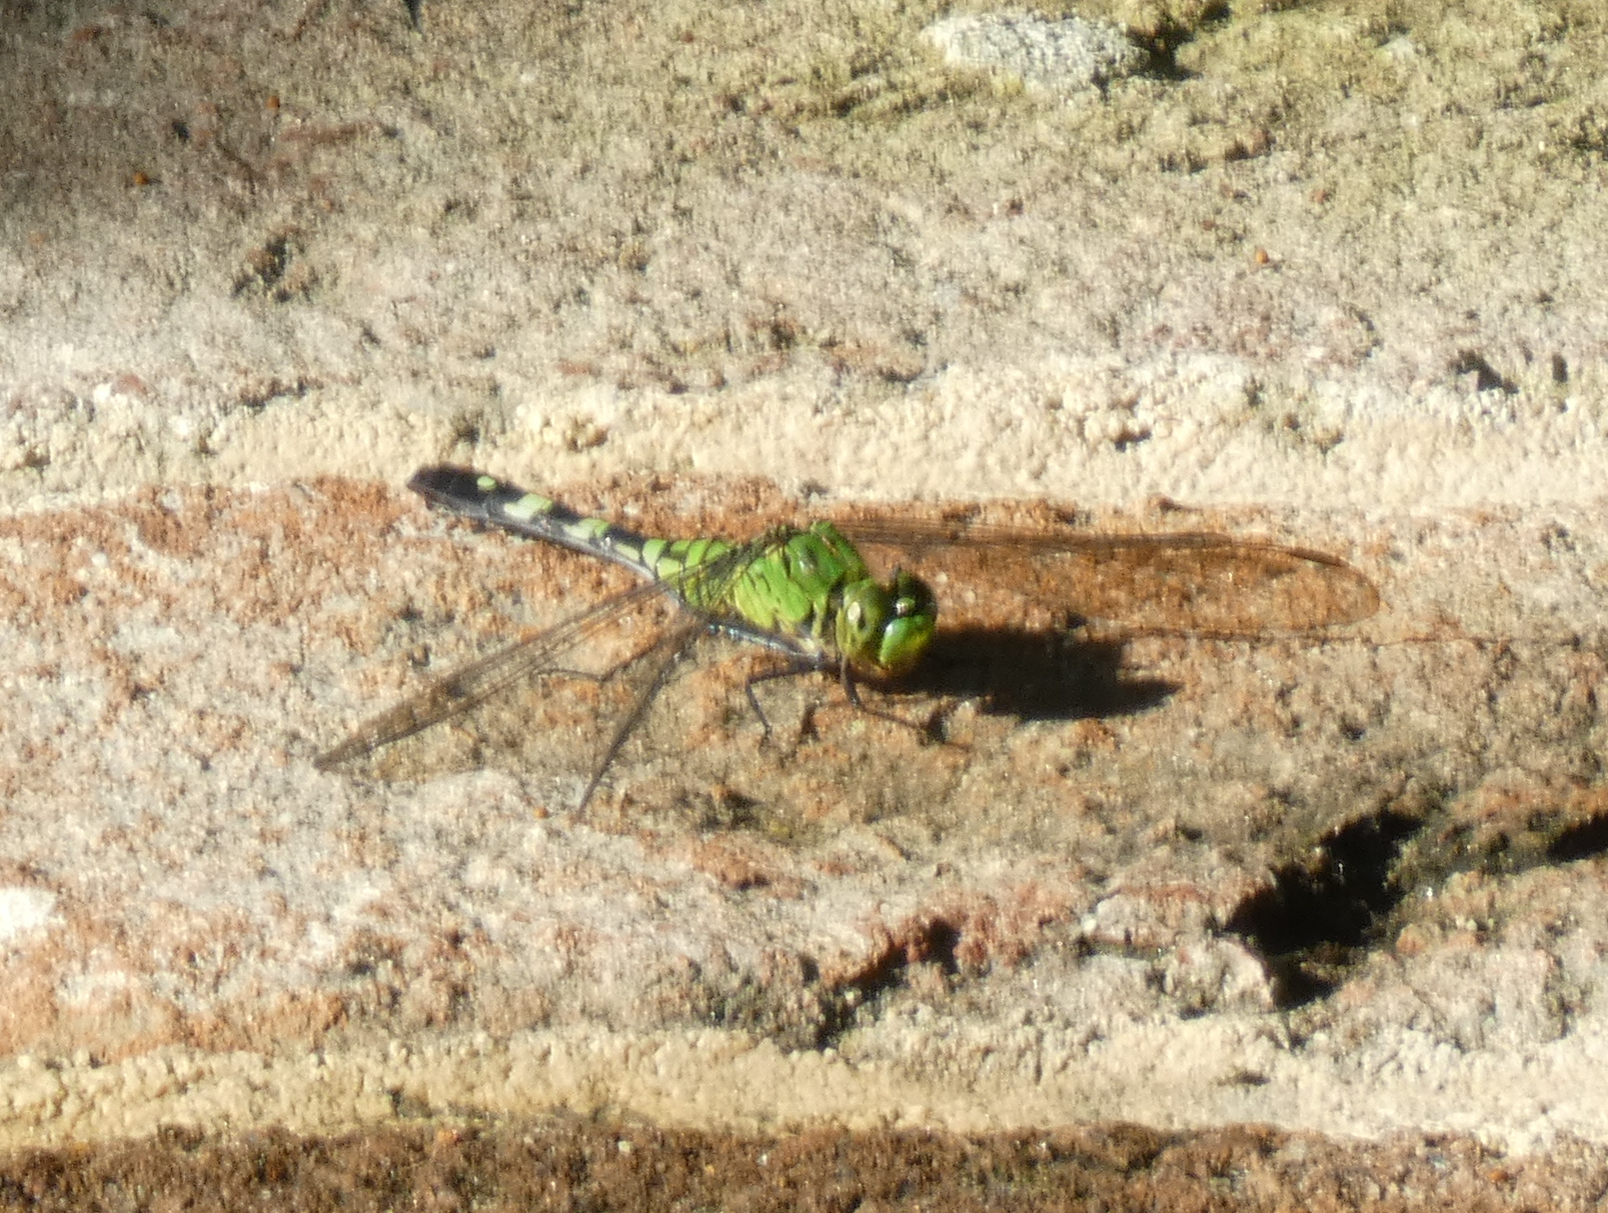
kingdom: Animalia
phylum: Arthropoda
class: Insecta
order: Odonata
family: Libellulidae
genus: Erythemis
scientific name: Erythemis simplicicollis
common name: Eastern pondhawk
